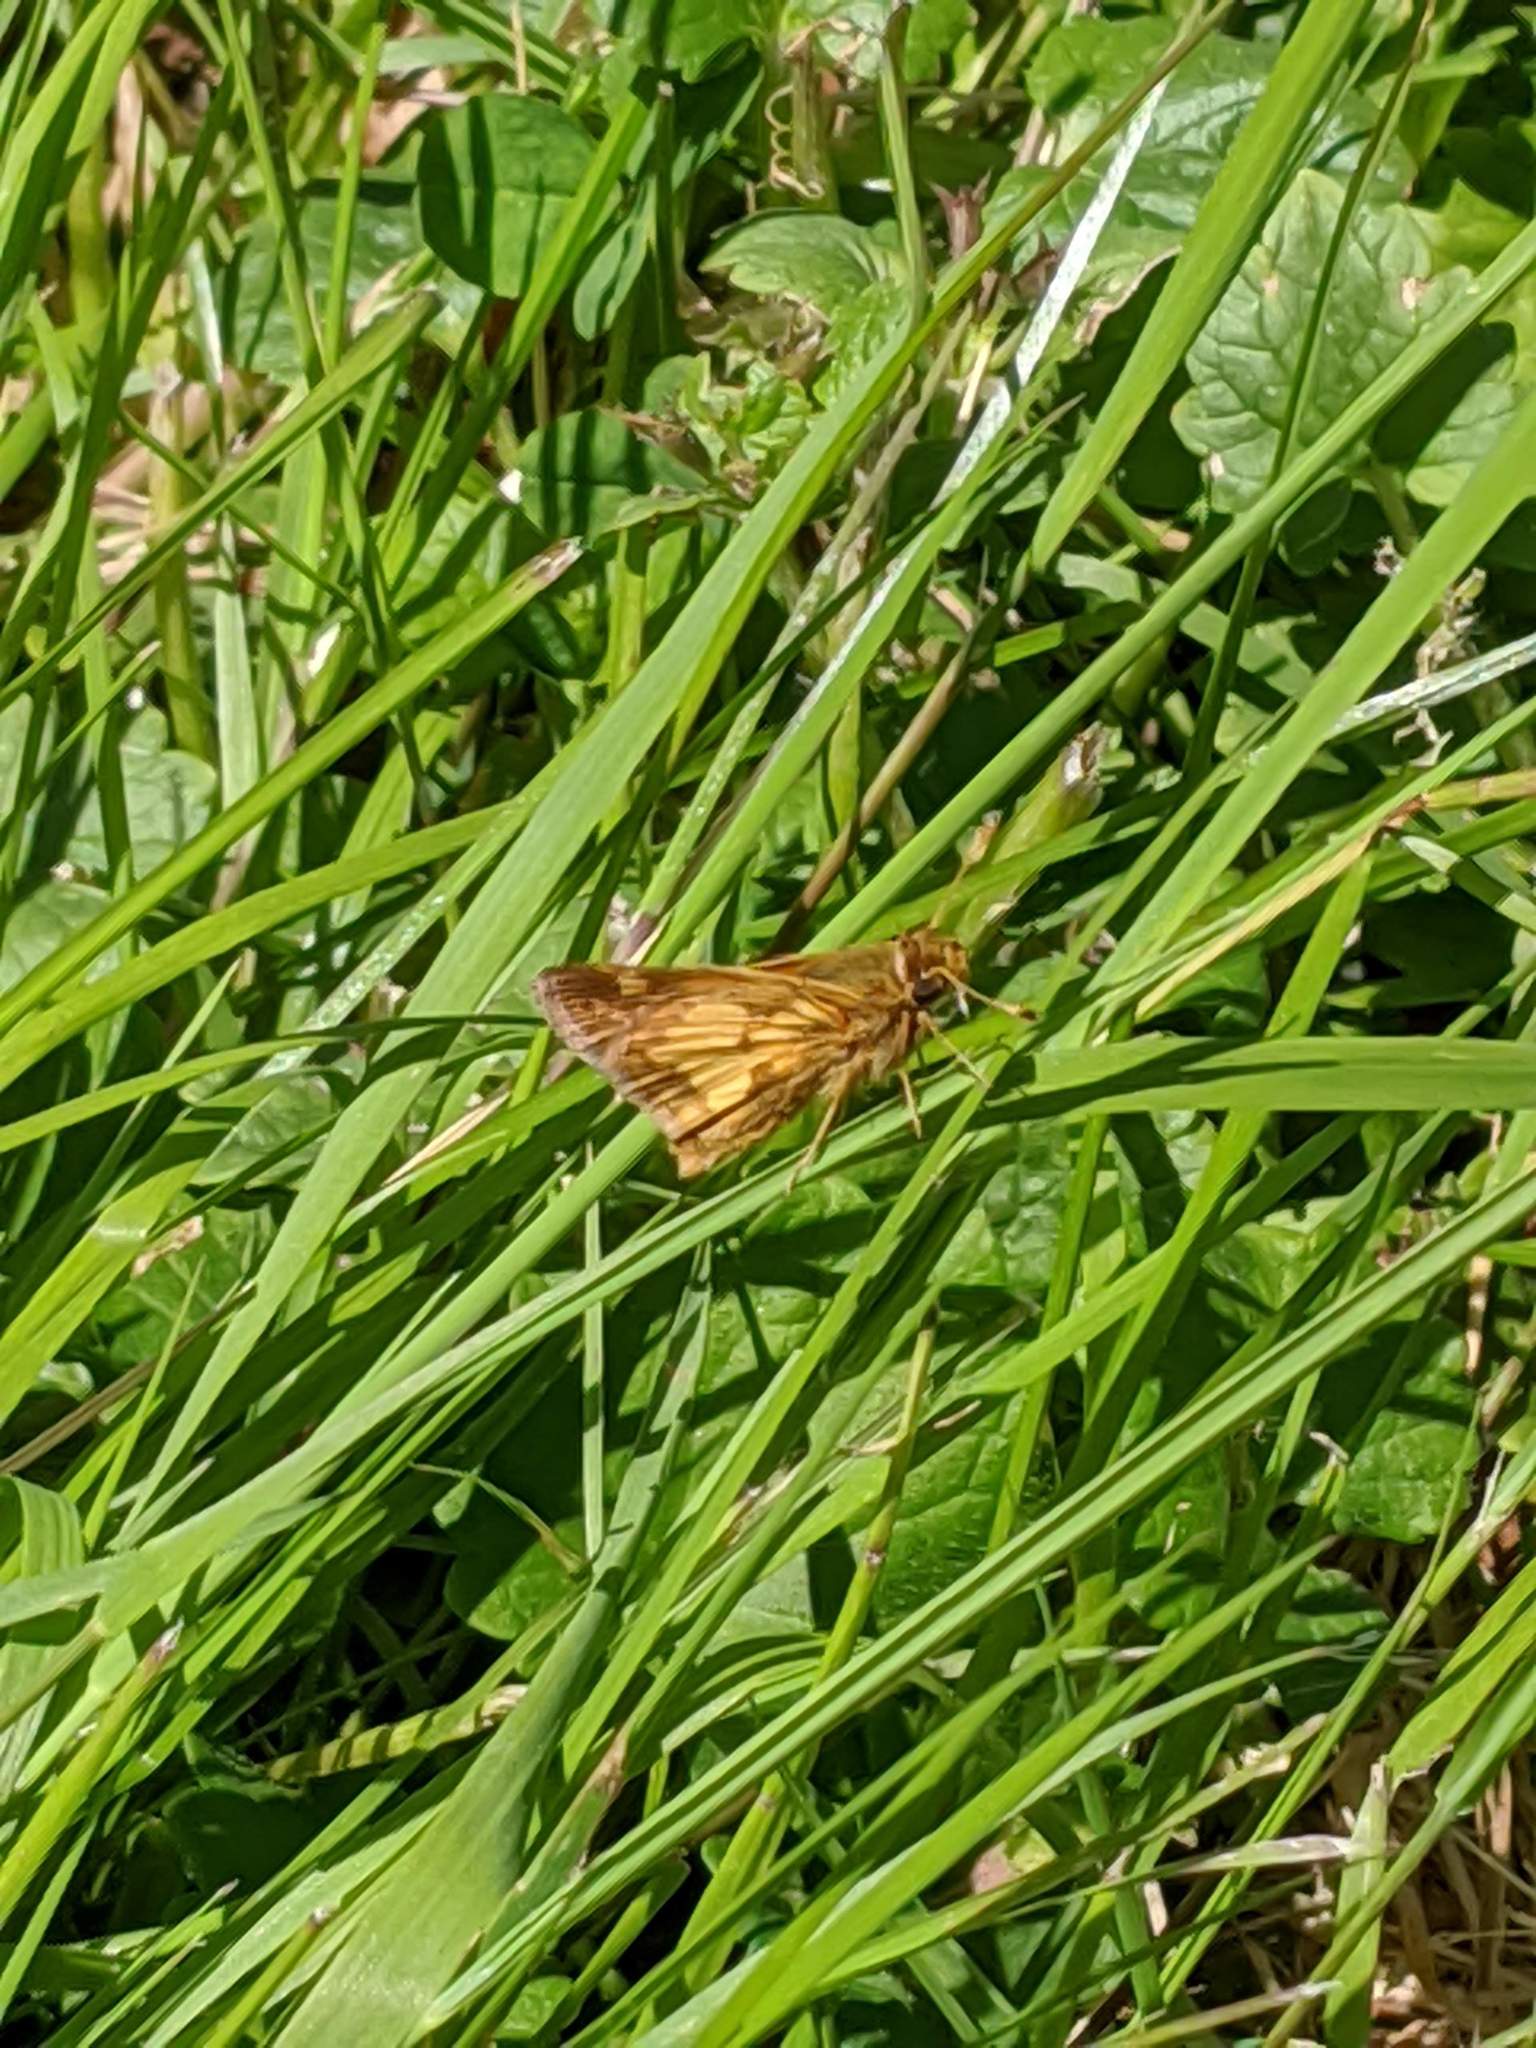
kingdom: Animalia
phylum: Arthropoda
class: Insecta
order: Lepidoptera
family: Hesperiidae
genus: Polites
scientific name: Polites coras
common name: Peck's skipper
